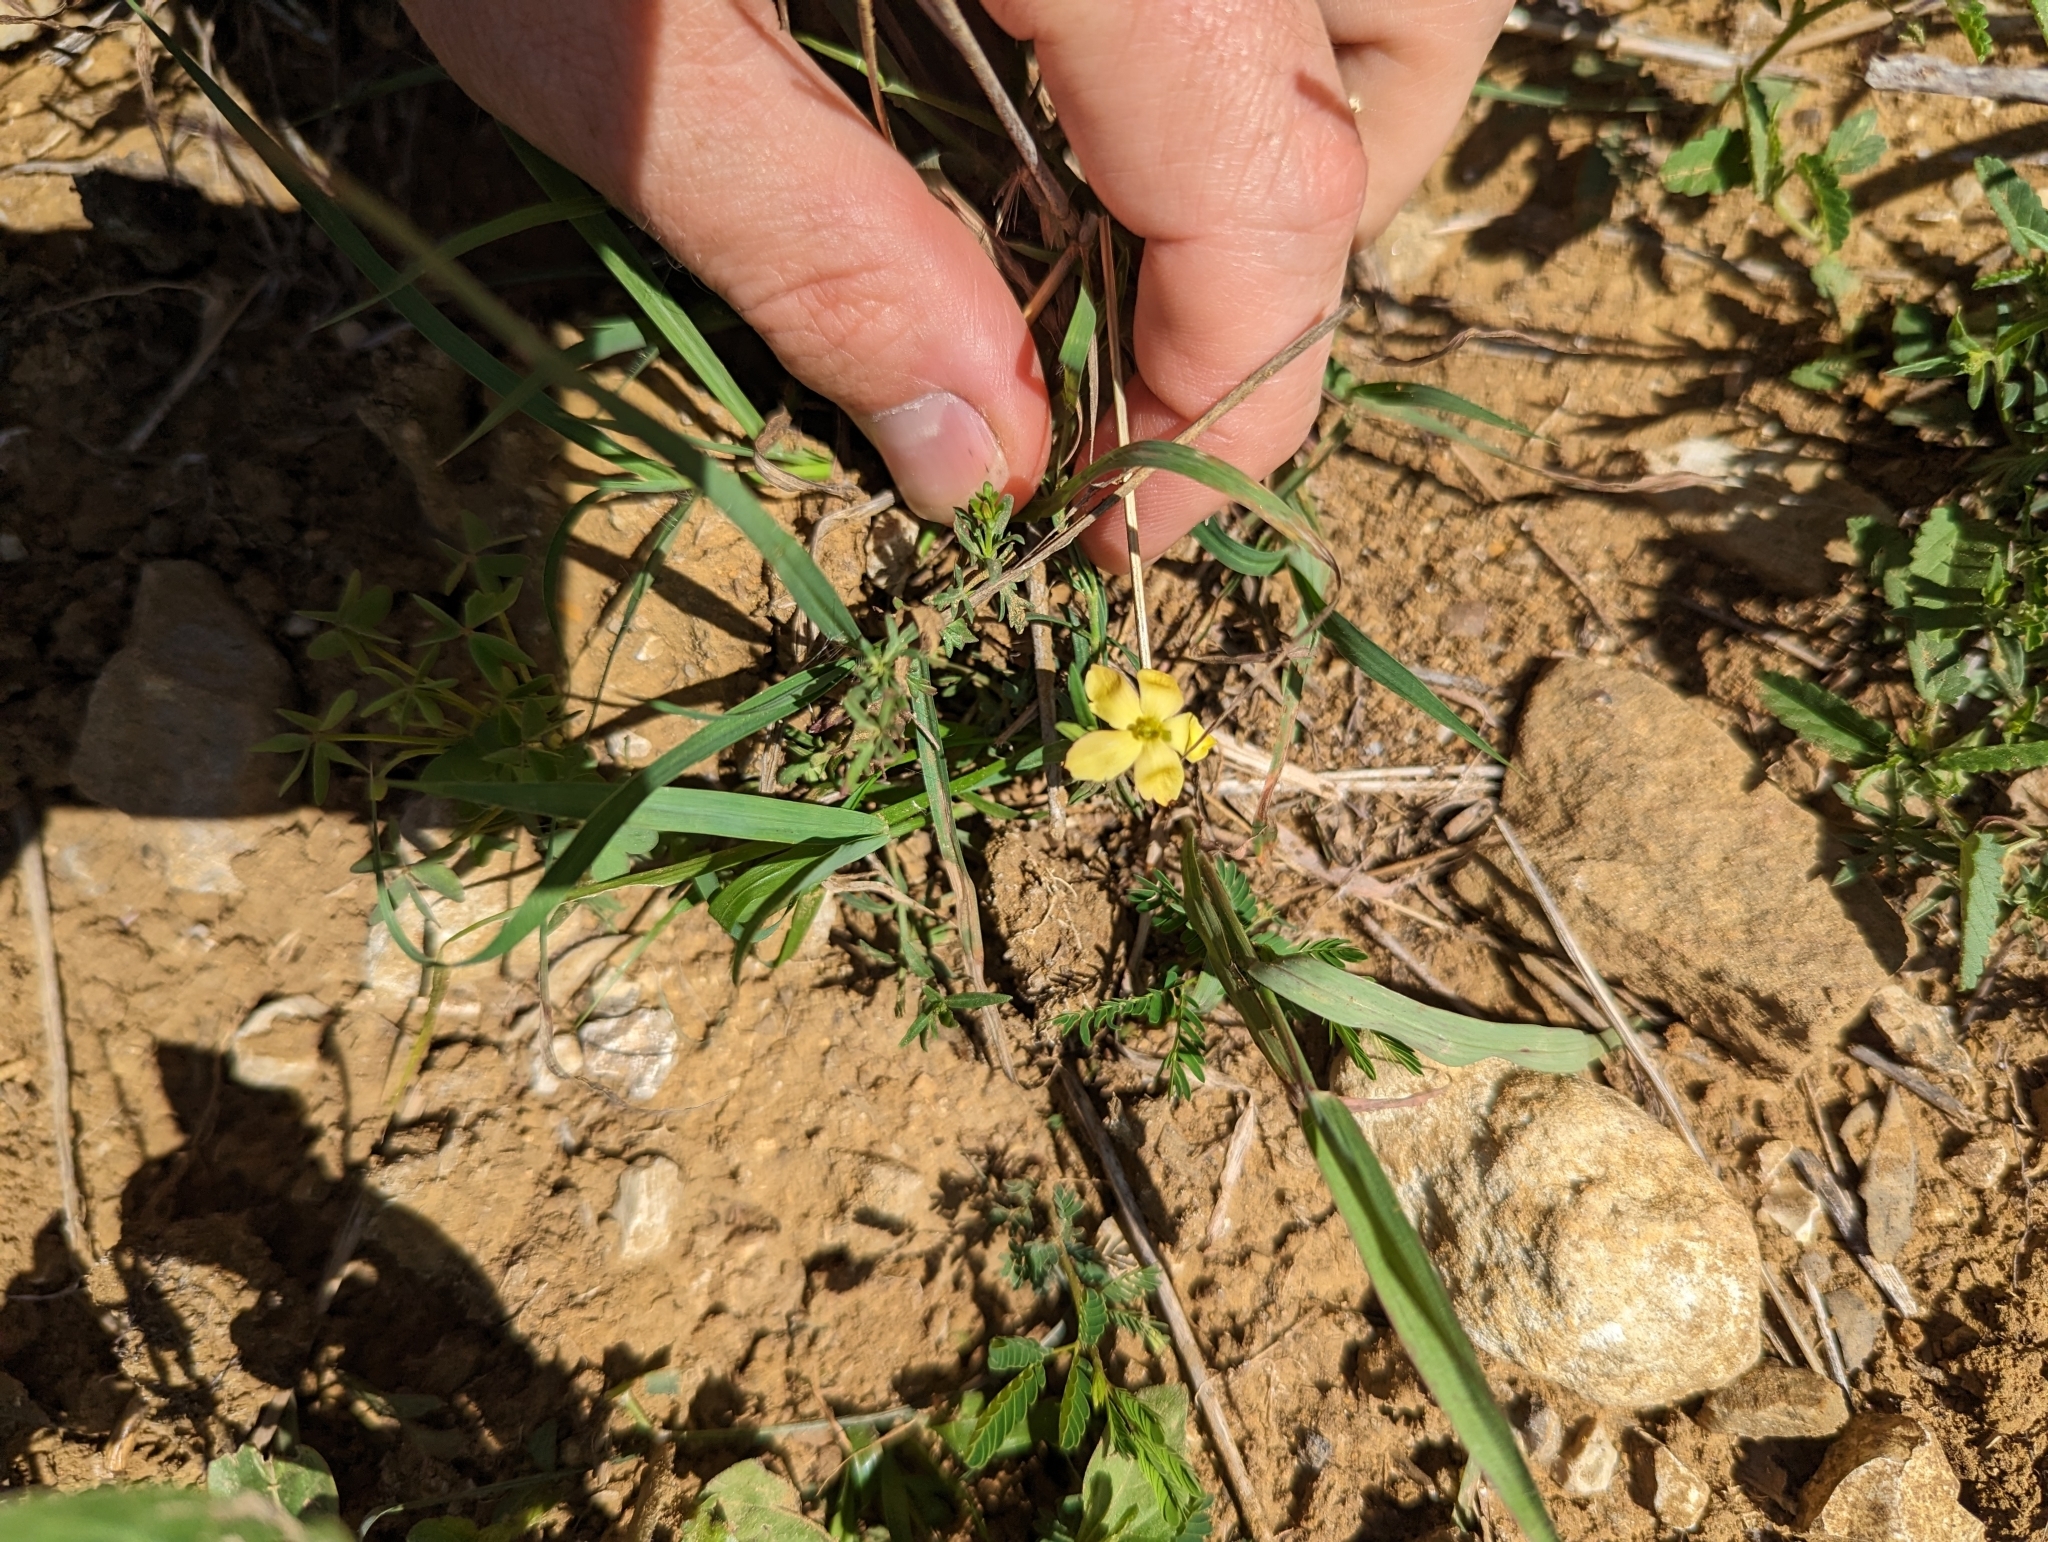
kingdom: Plantae
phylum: Tracheophyta
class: Magnoliopsida
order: Lamiales
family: Oleaceae
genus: Menodora
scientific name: Menodora heterophylla
